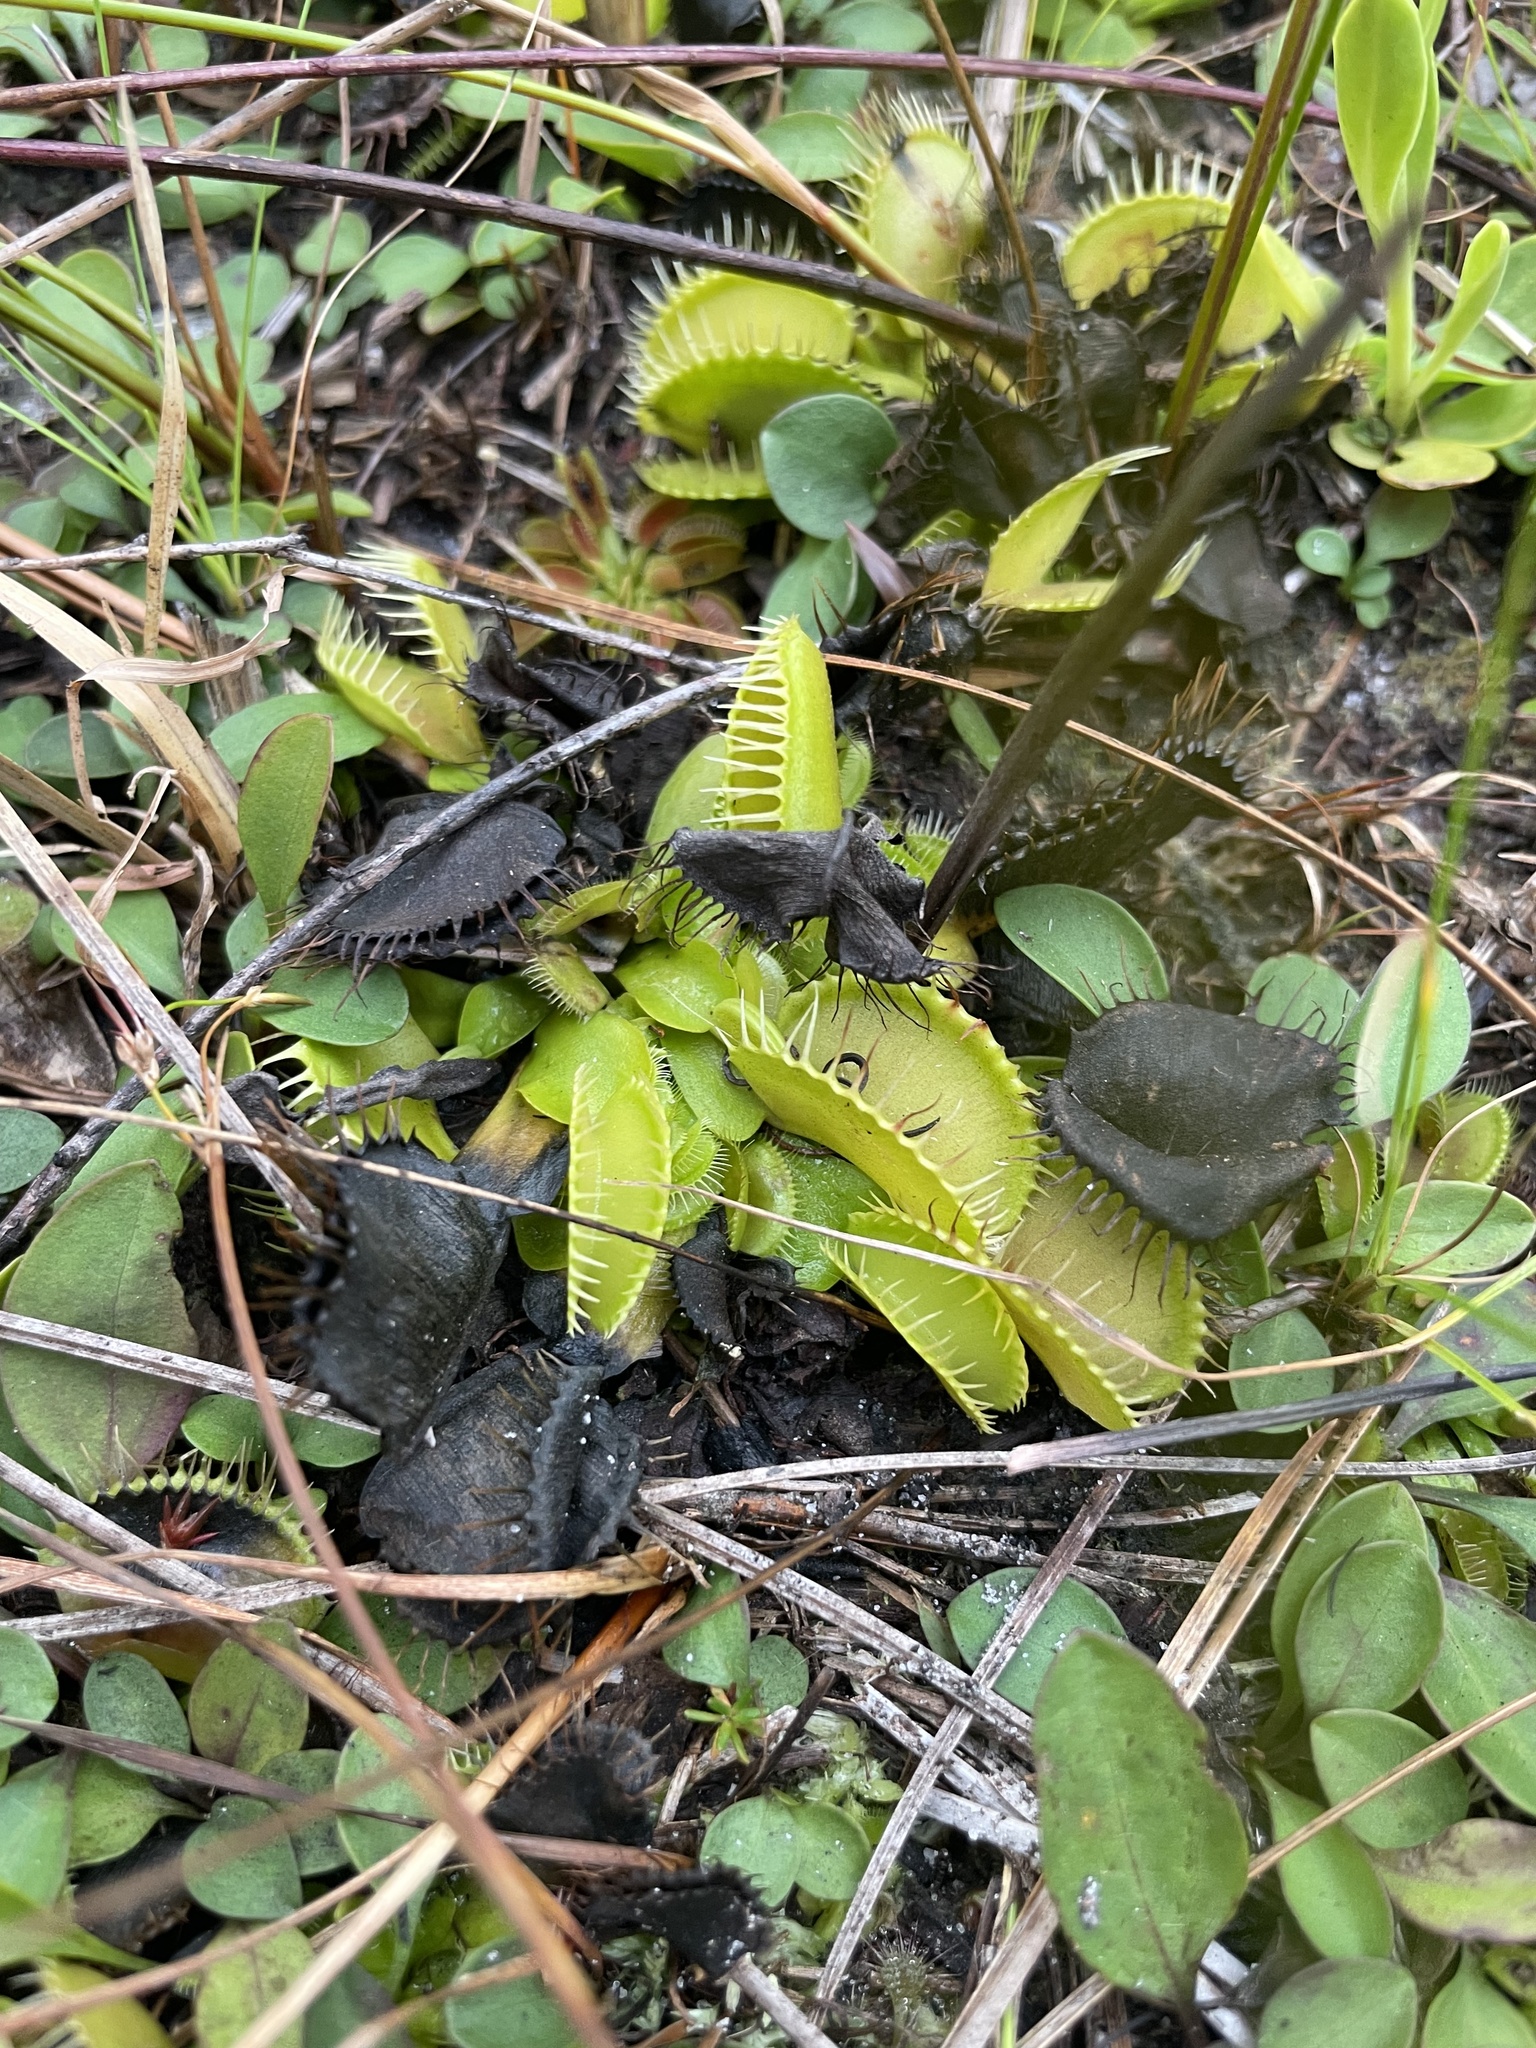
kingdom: Plantae
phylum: Tracheophyta
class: Magnoliopsida
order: Caryophyllales
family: Droseraceae
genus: Dionaea
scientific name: Dionaea muscipula
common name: Venus flytrap
